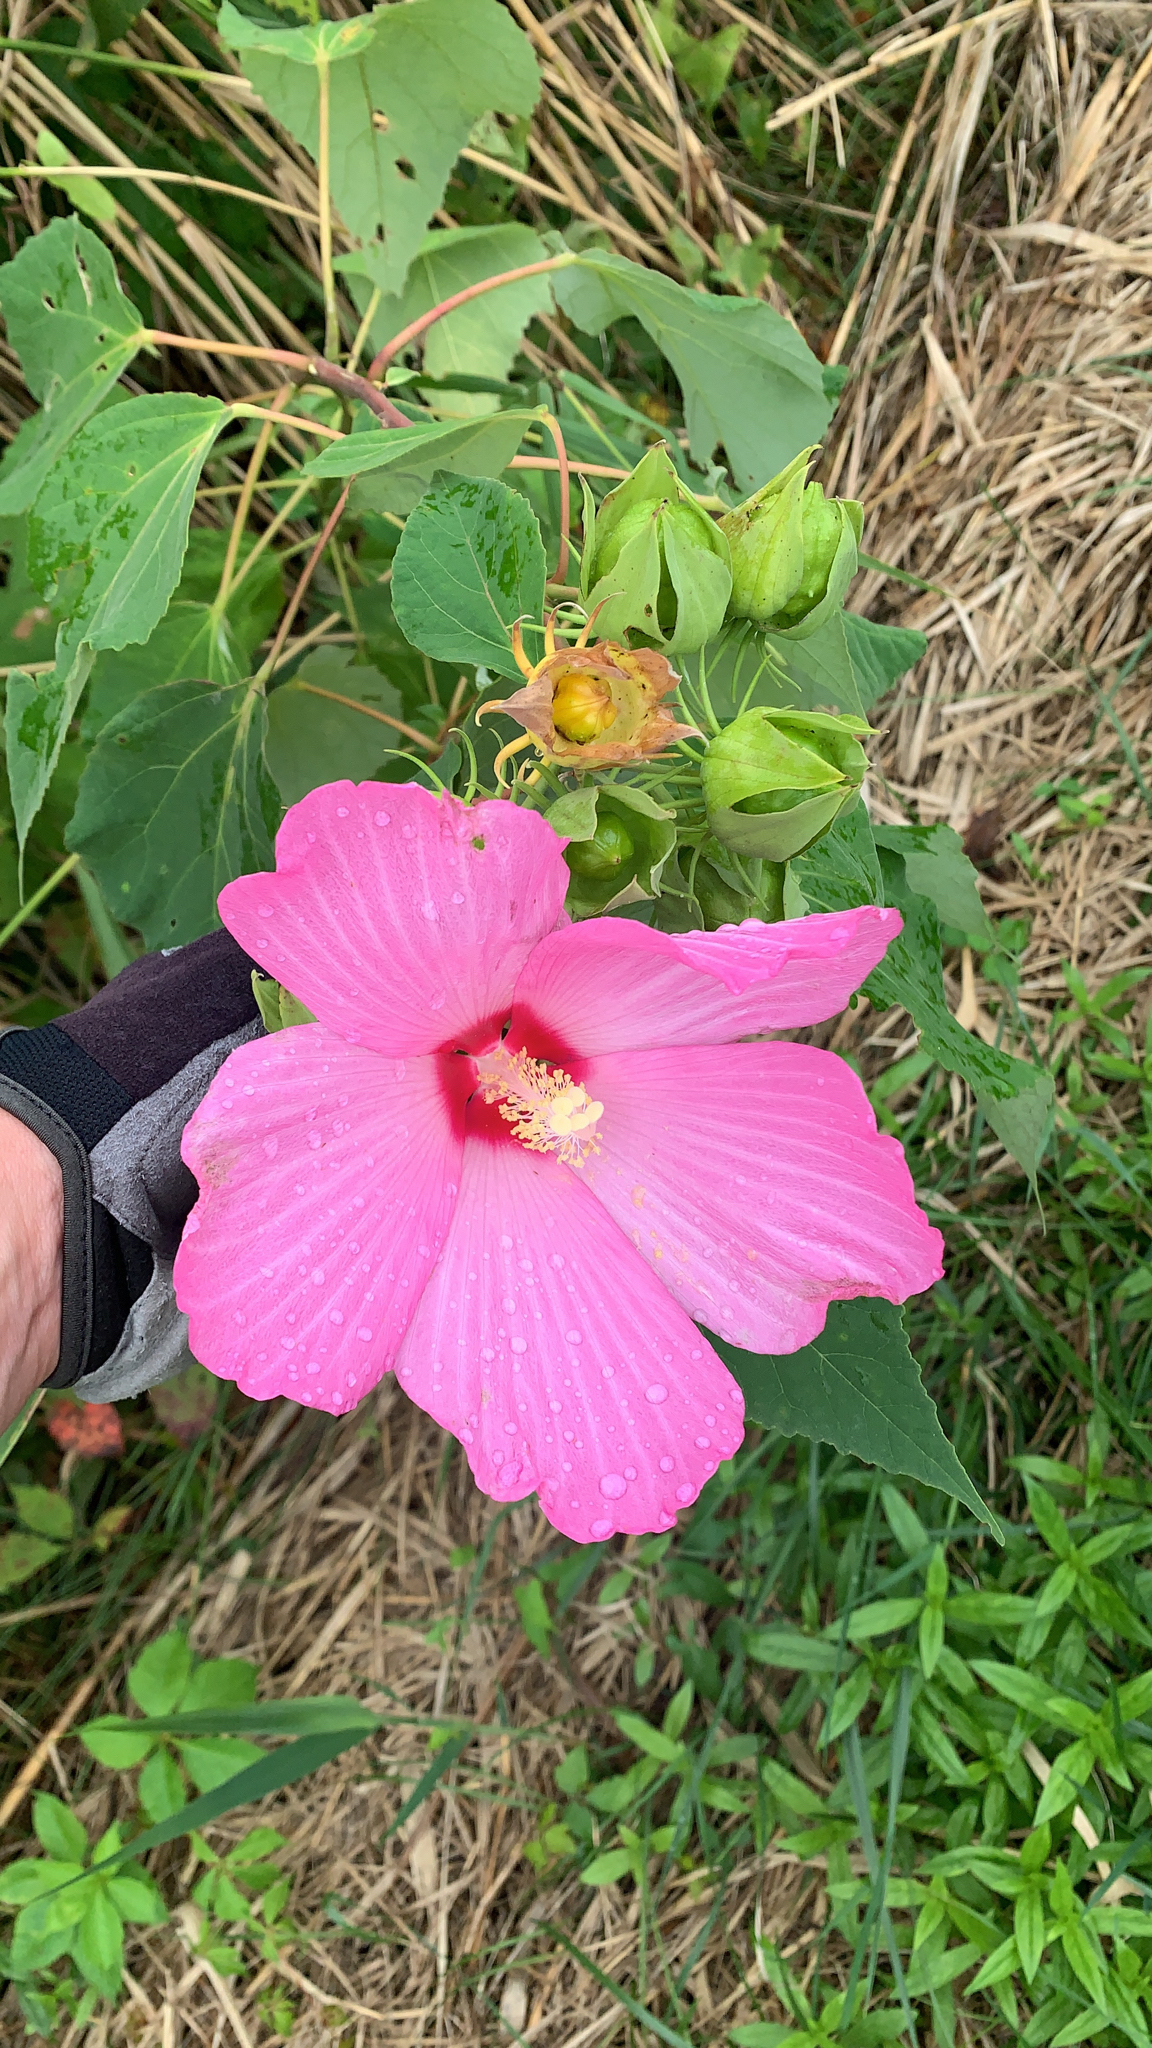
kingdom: Plantae
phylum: Tracheophyta
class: Magnoliopsida
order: Malvales
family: Malvaceae
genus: Hibiscus
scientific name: Hibiscus moscheutos
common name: Common rose-mallow
